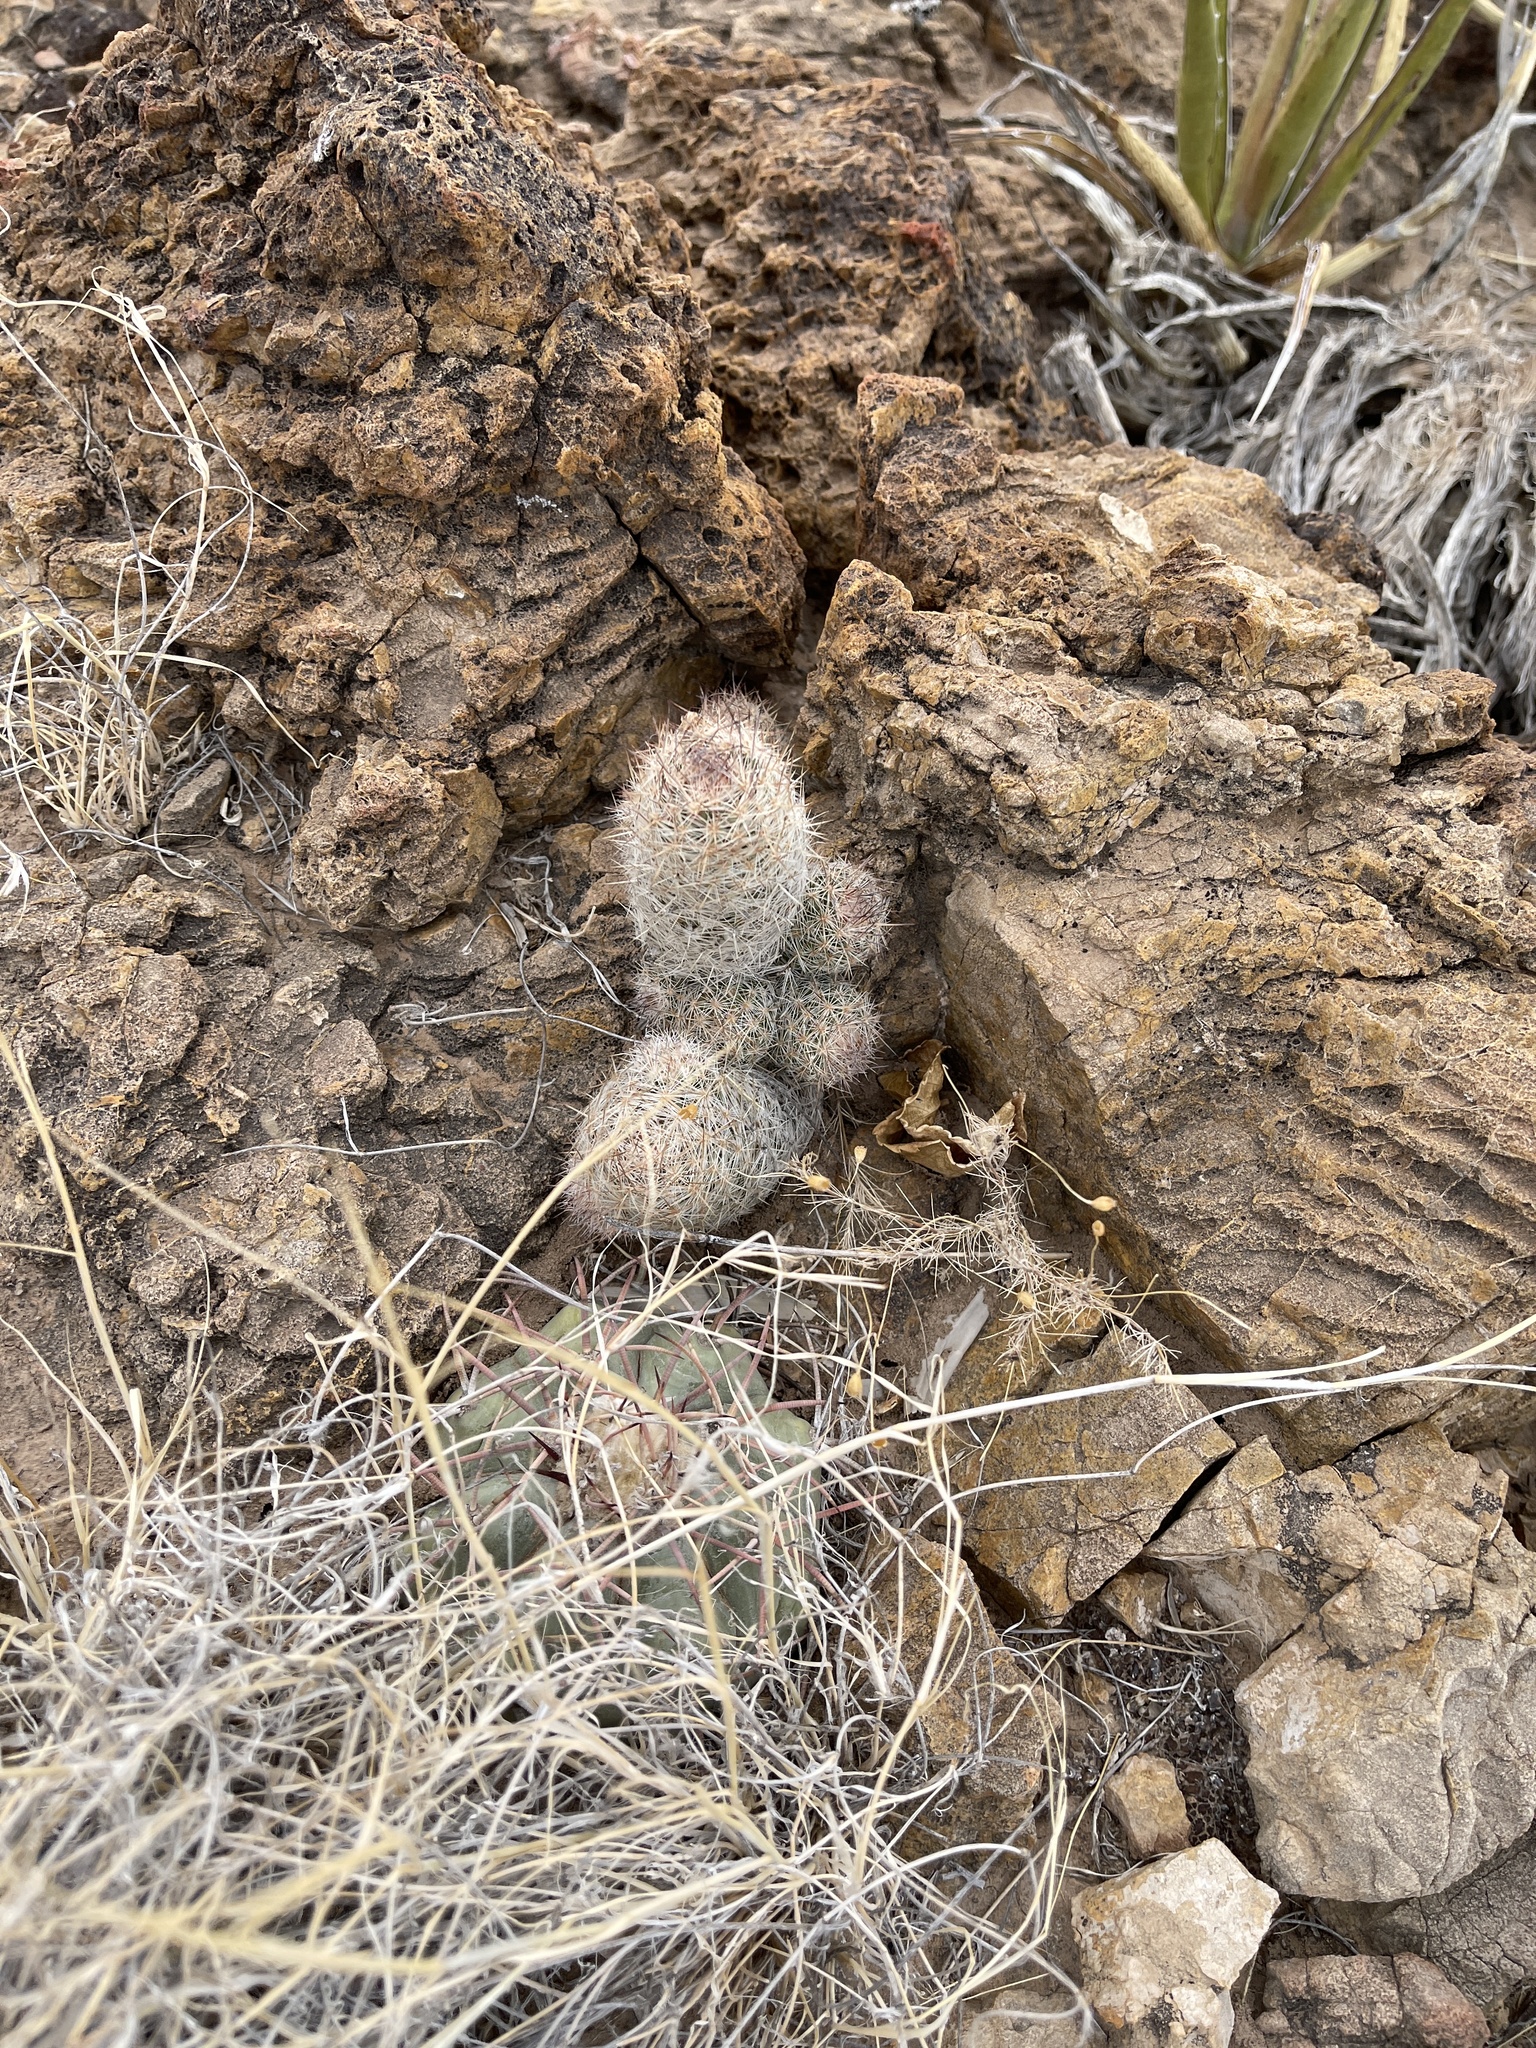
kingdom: Plantae
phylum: Tracheophyta
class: Magnoliopsida
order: Caryophyllales
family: Cactaceae
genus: Pelecyphora
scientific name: Pelecyphora tuberculosa
